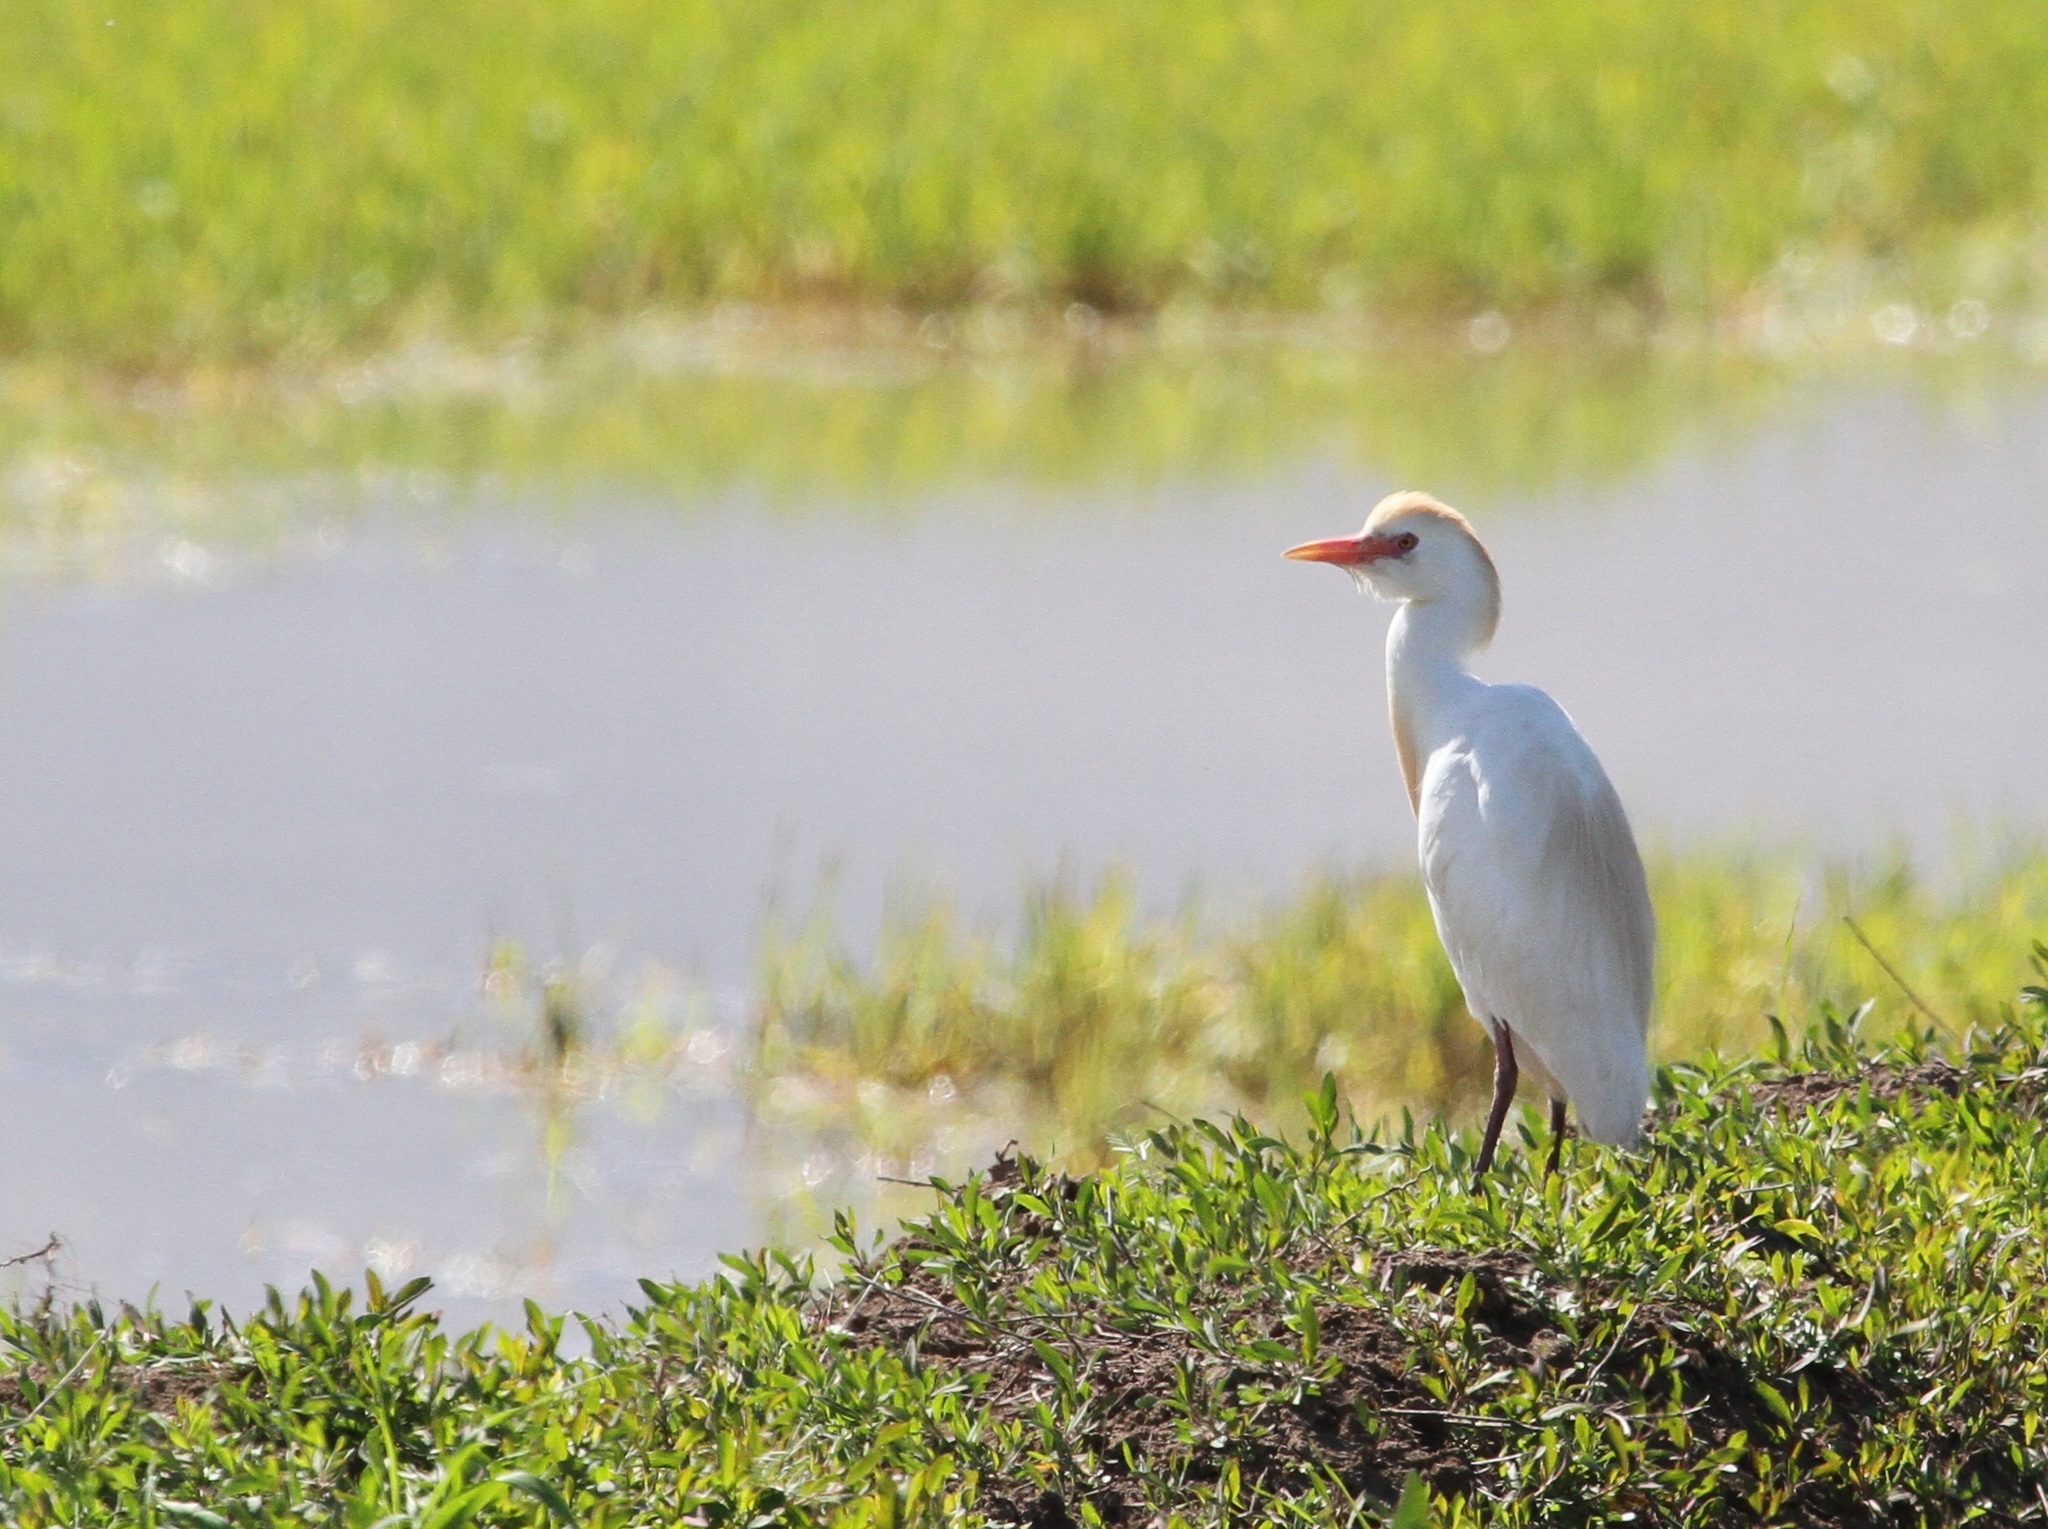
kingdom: Animalia
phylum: Chordata
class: Aves
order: Pelecaniformes
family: Ardeidae
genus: Bubulcus
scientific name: Bubulcus ibis
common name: Cattle egret
